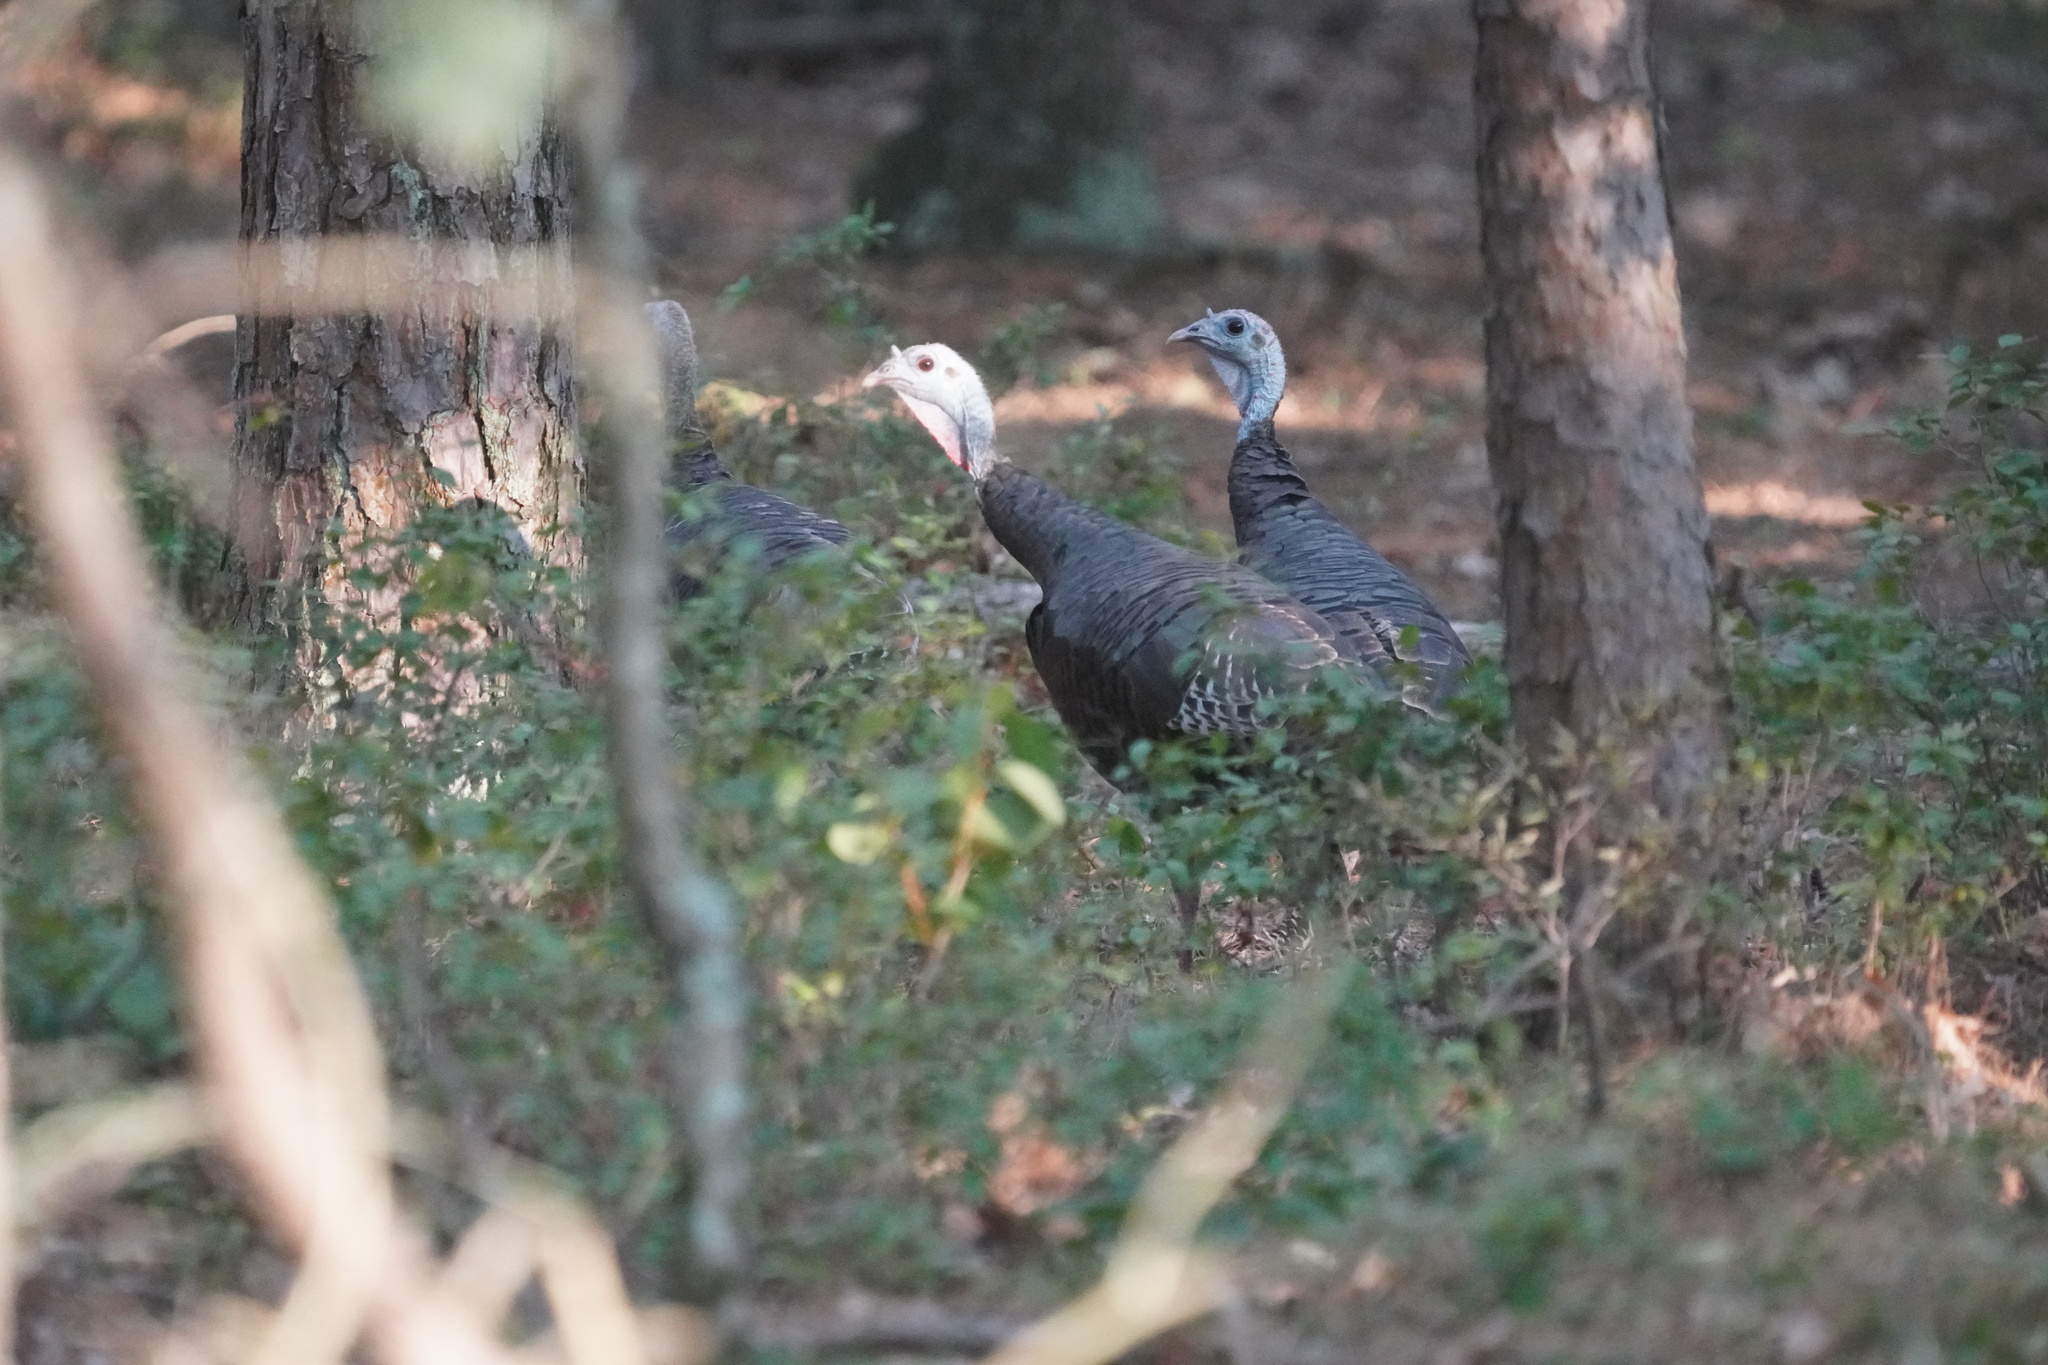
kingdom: Animalia
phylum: Chordata
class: Aves
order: Galliformes
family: Phasianidae
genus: Meleagris
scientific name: Meleagris gallopavo
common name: Wild turkey
